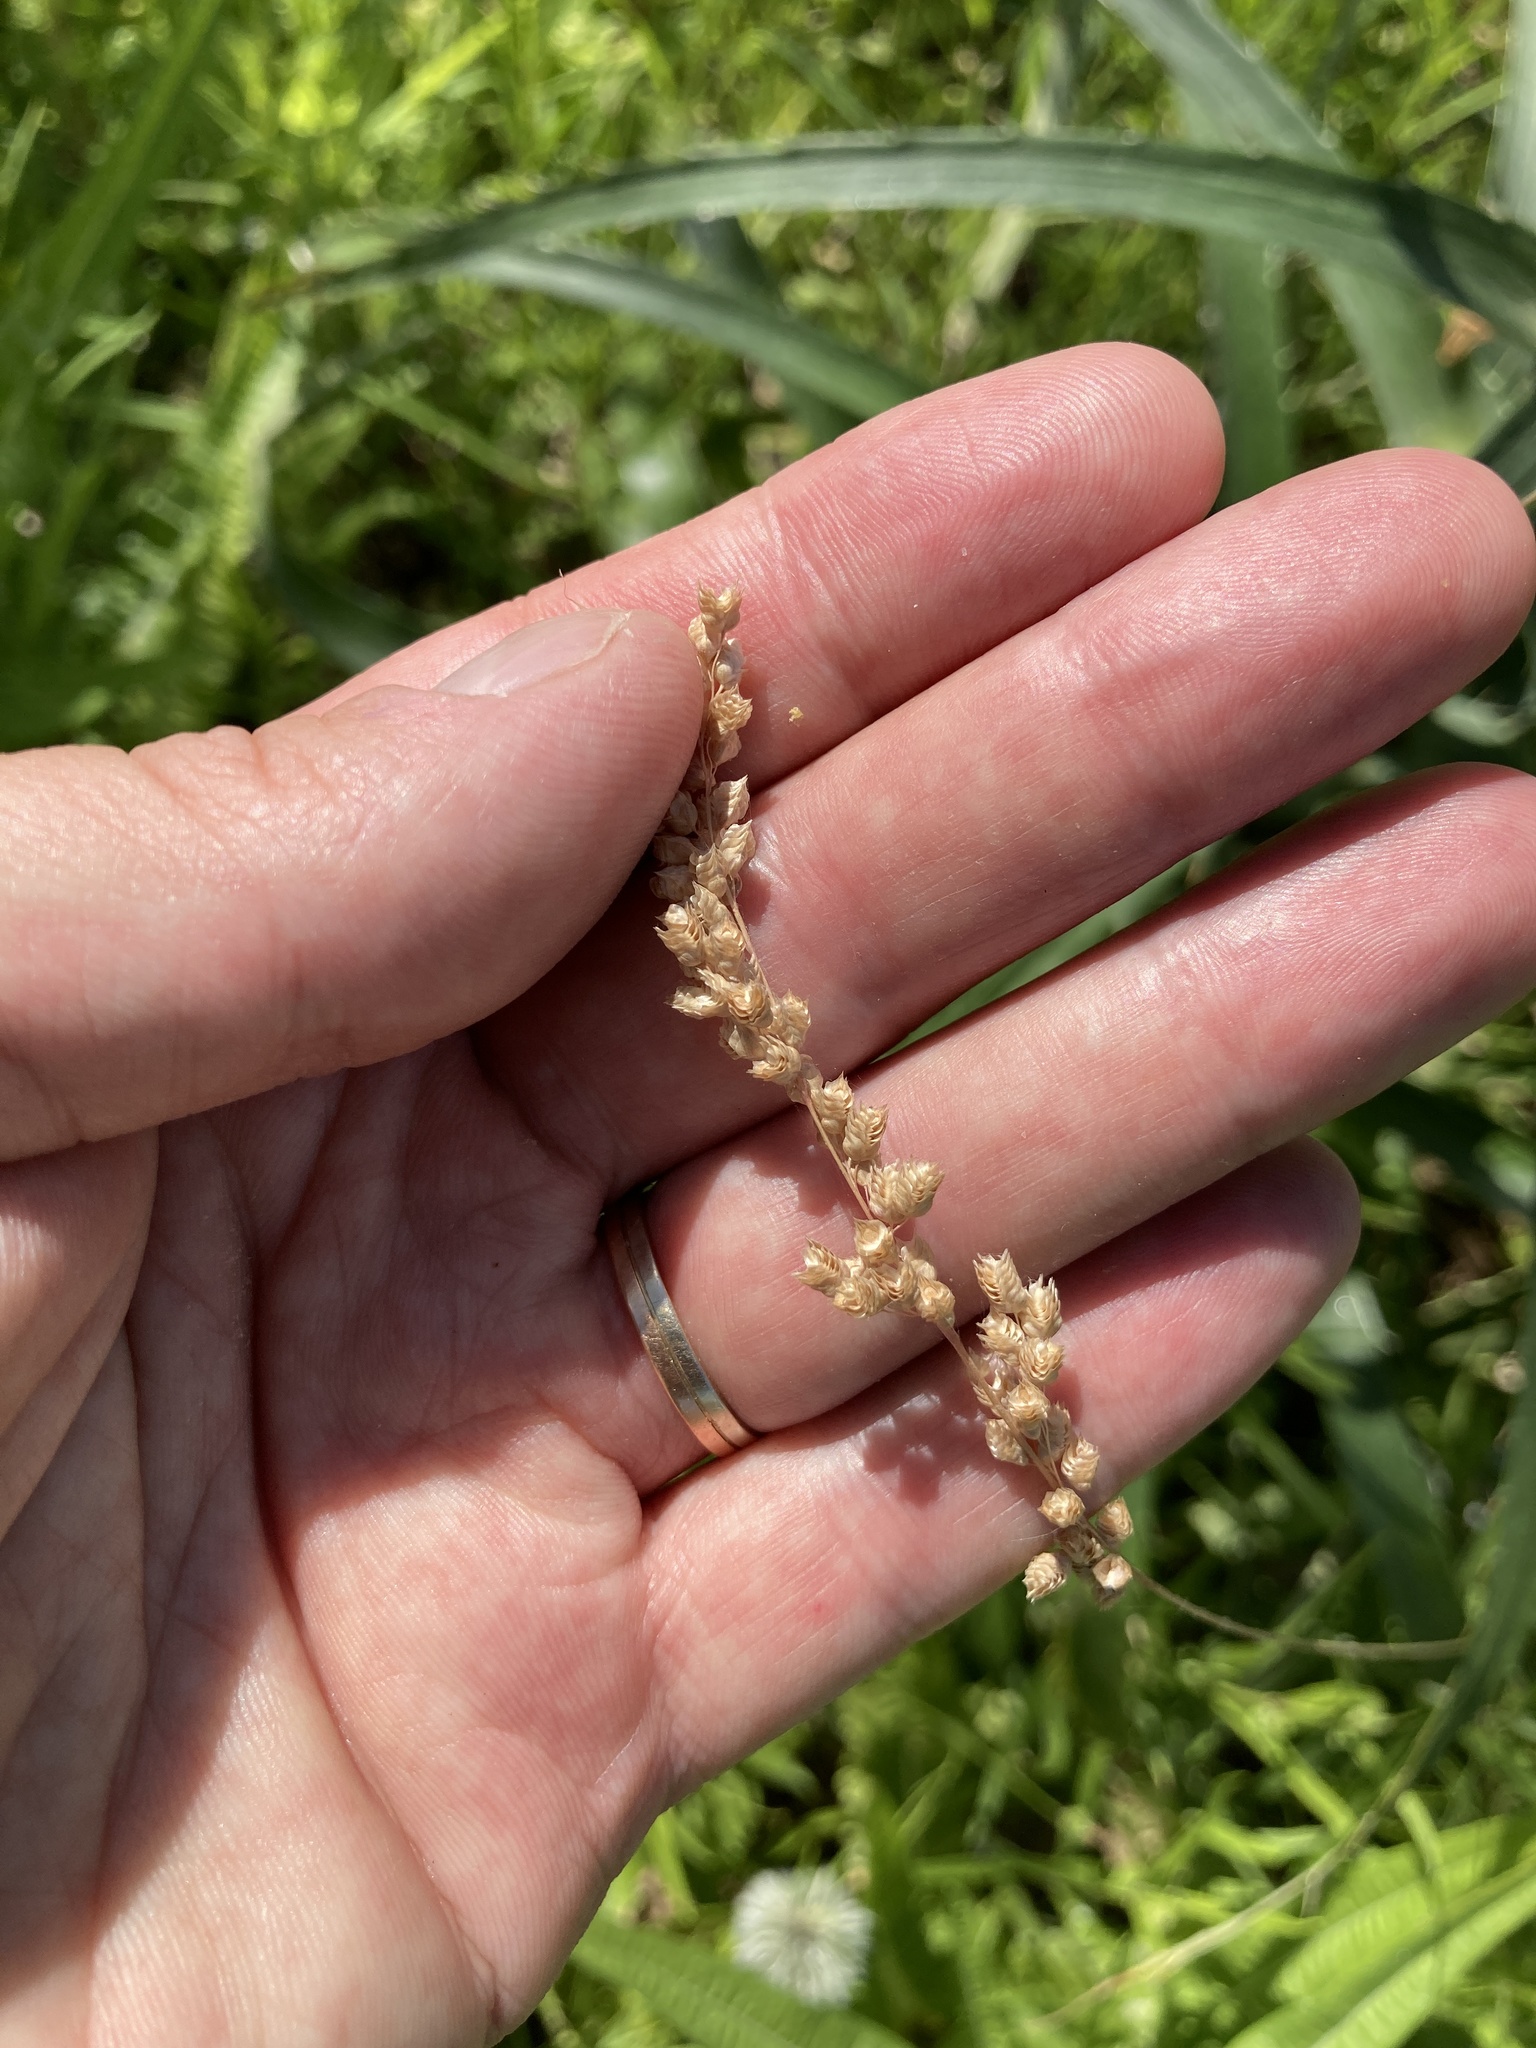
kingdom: Plantae
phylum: Tracheophyta
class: Liliopsida
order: Poales
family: Poaceae
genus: Chascolytrum
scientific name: Chascolytrum subaristatum
